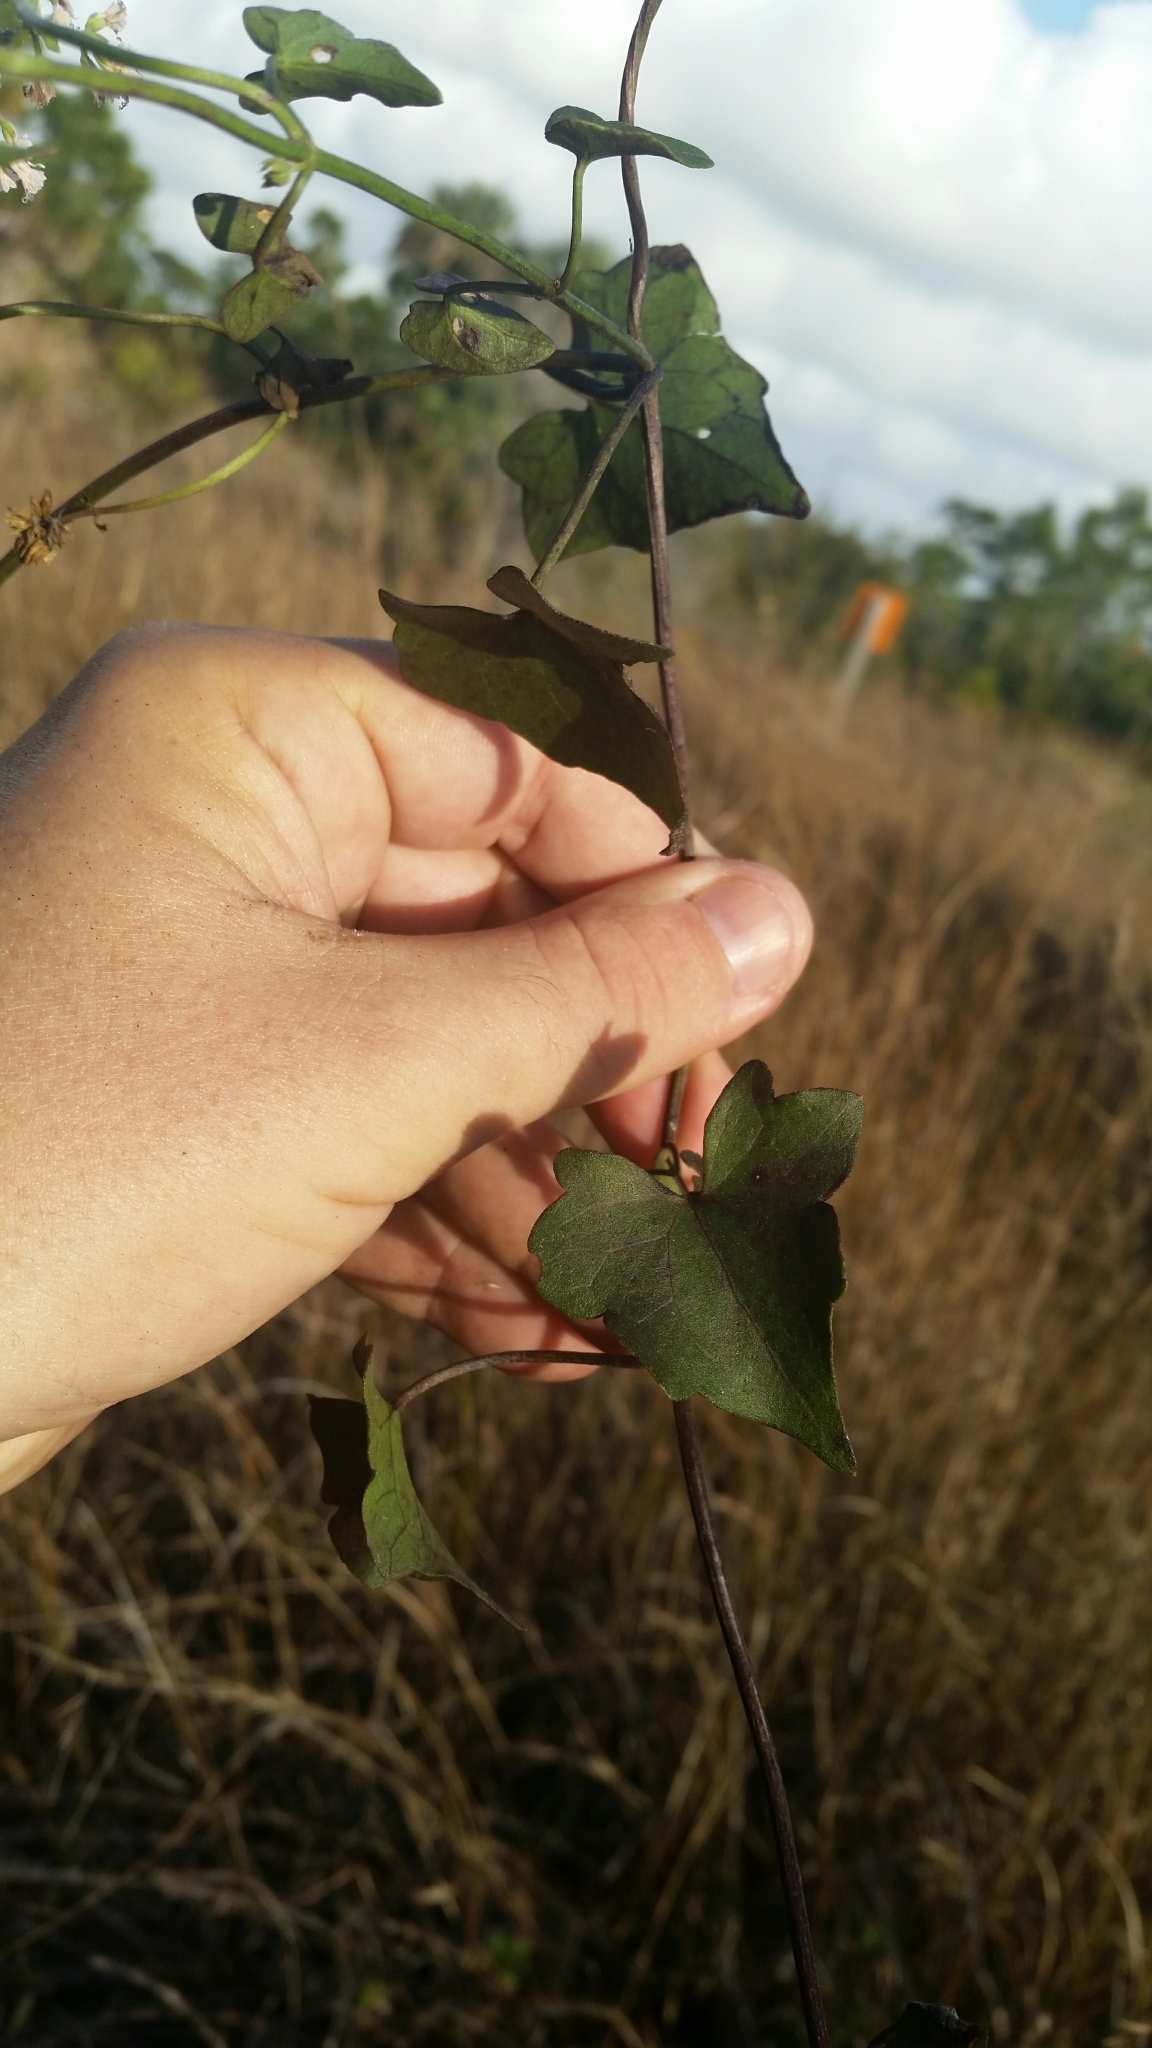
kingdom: Plantae
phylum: Tracheophyta
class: Magnoliopsida
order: Asterales
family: Asteraceae
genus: Mikania
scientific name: Mikania scandens
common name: Climbing hempvine
